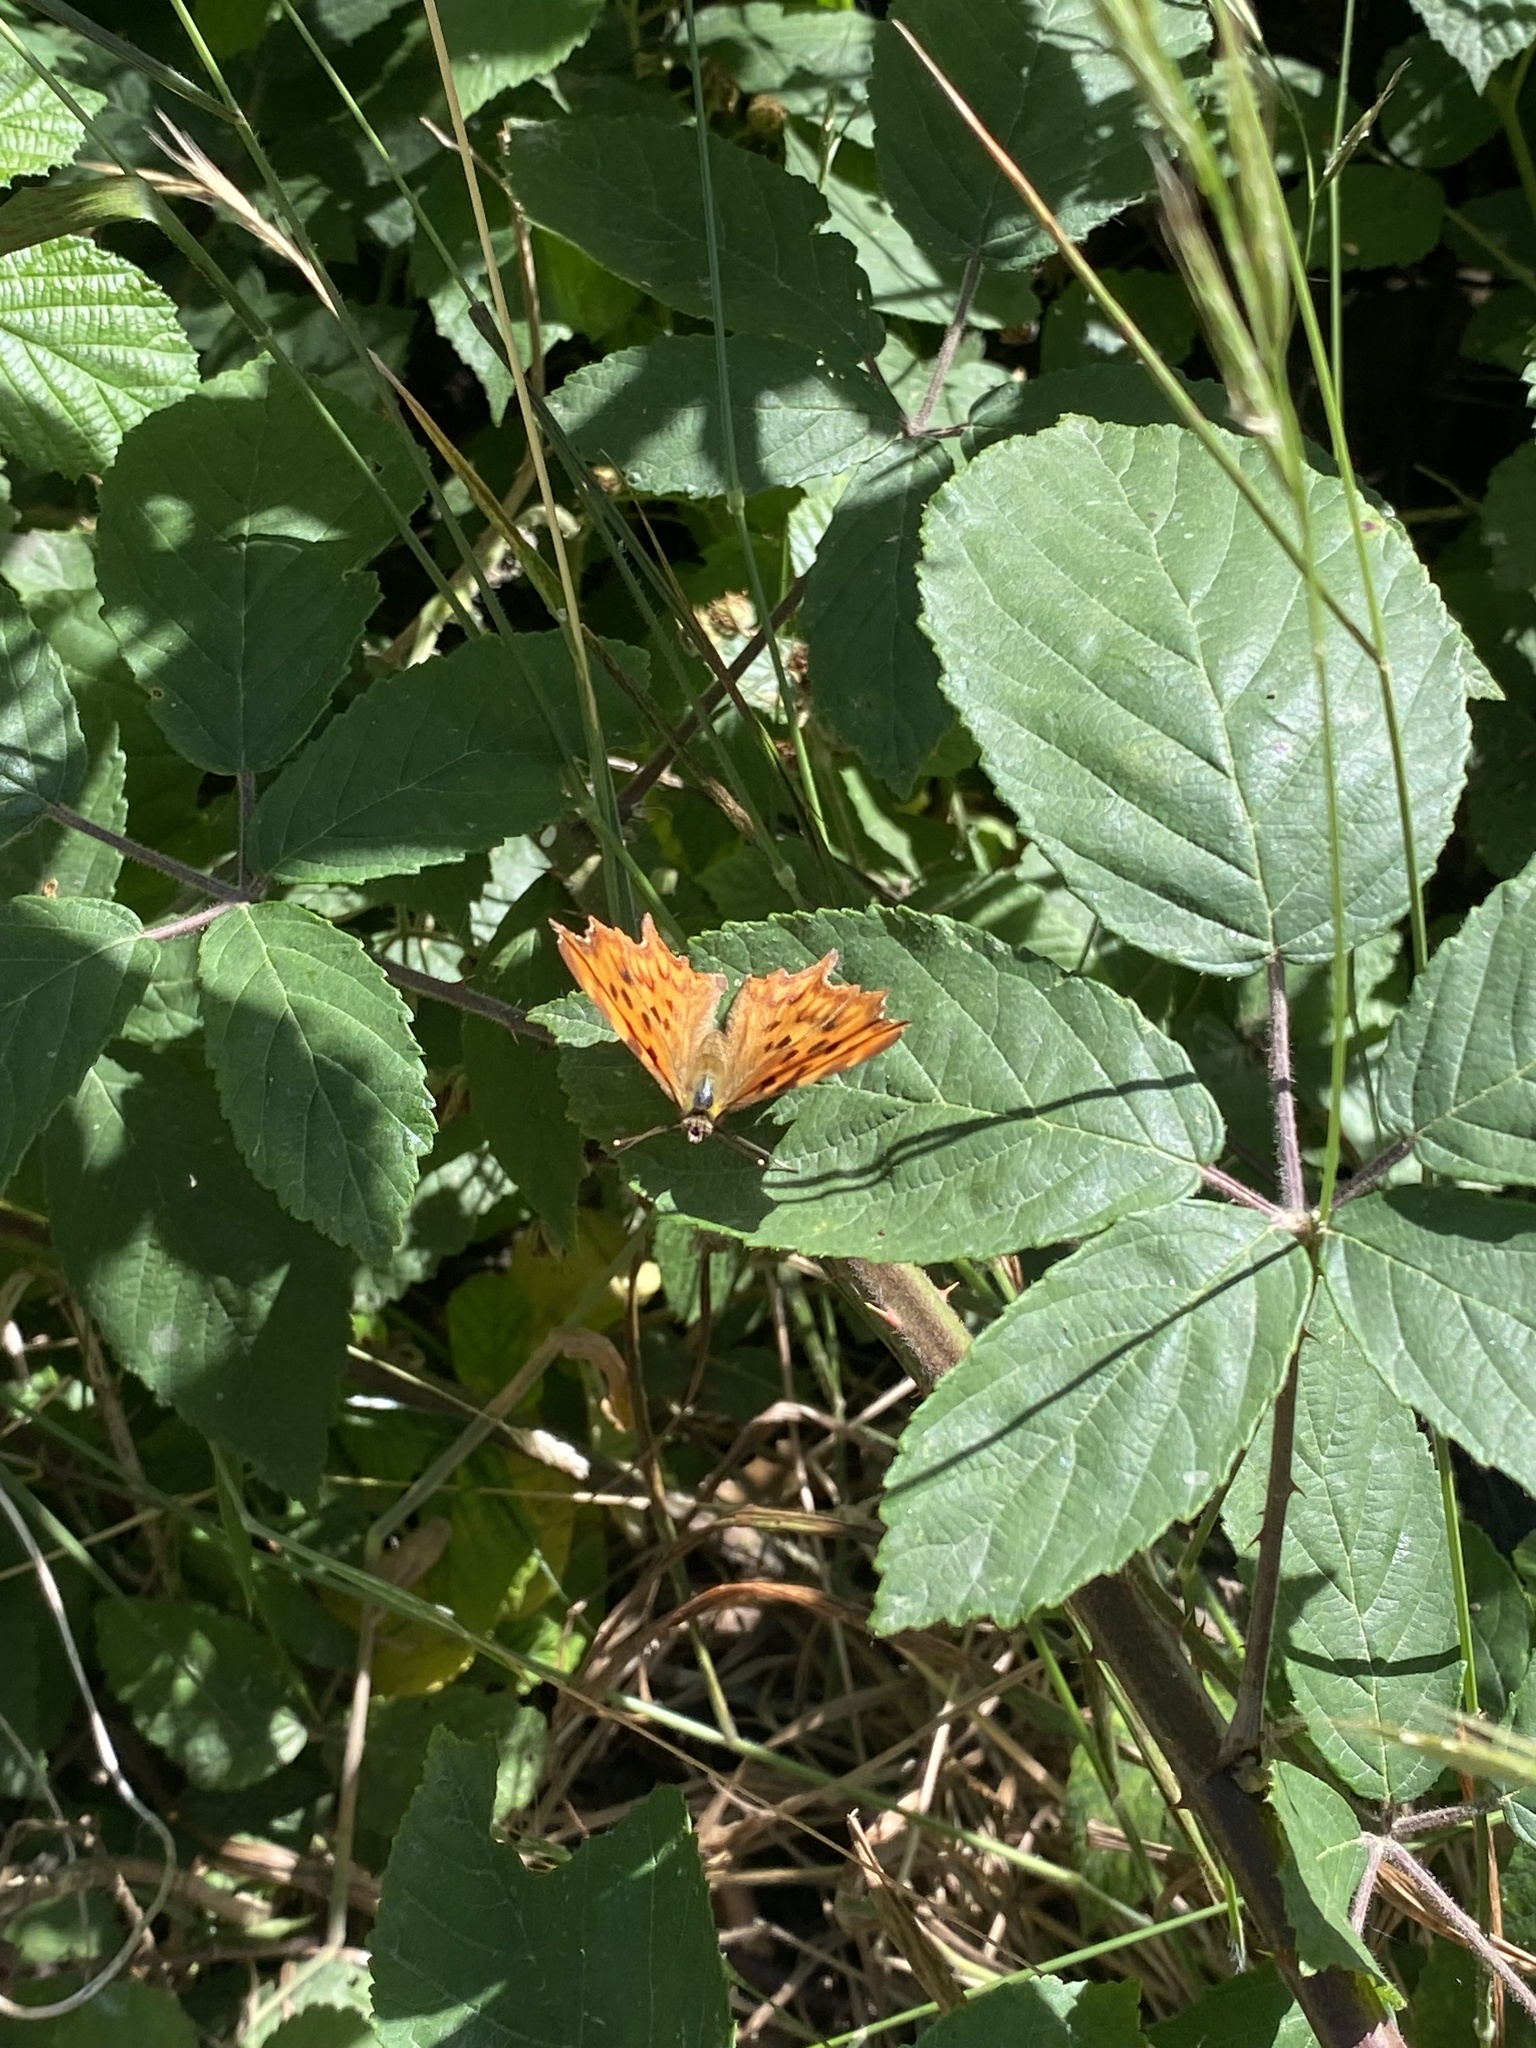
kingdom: Animalia
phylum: Arthropoda
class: Insecta
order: Lepidoptera
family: Nymphalidae
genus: Polygonia
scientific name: Polygonia c-album
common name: Comma
